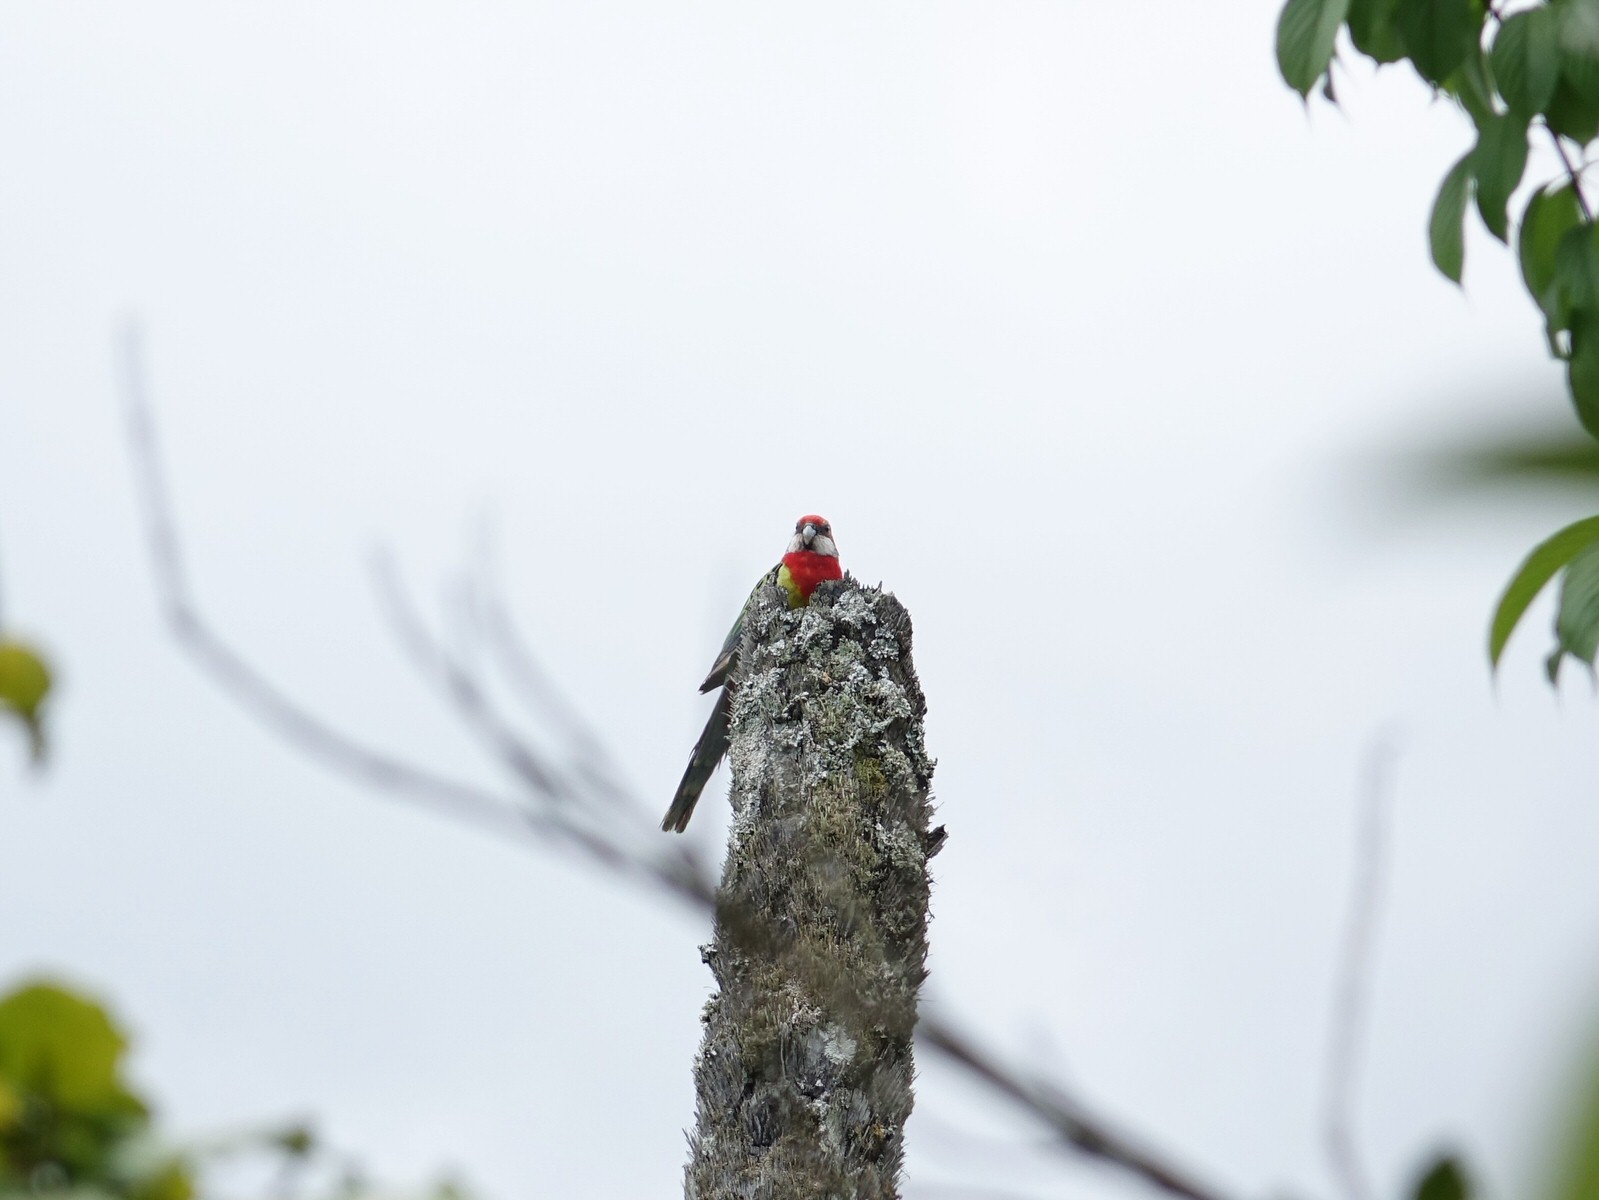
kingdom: Animalia
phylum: Chordata
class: Aves
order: Psittaciformes
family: Psittacidae
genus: Platycercus
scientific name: Platycercus eximius
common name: Eastern rosella
